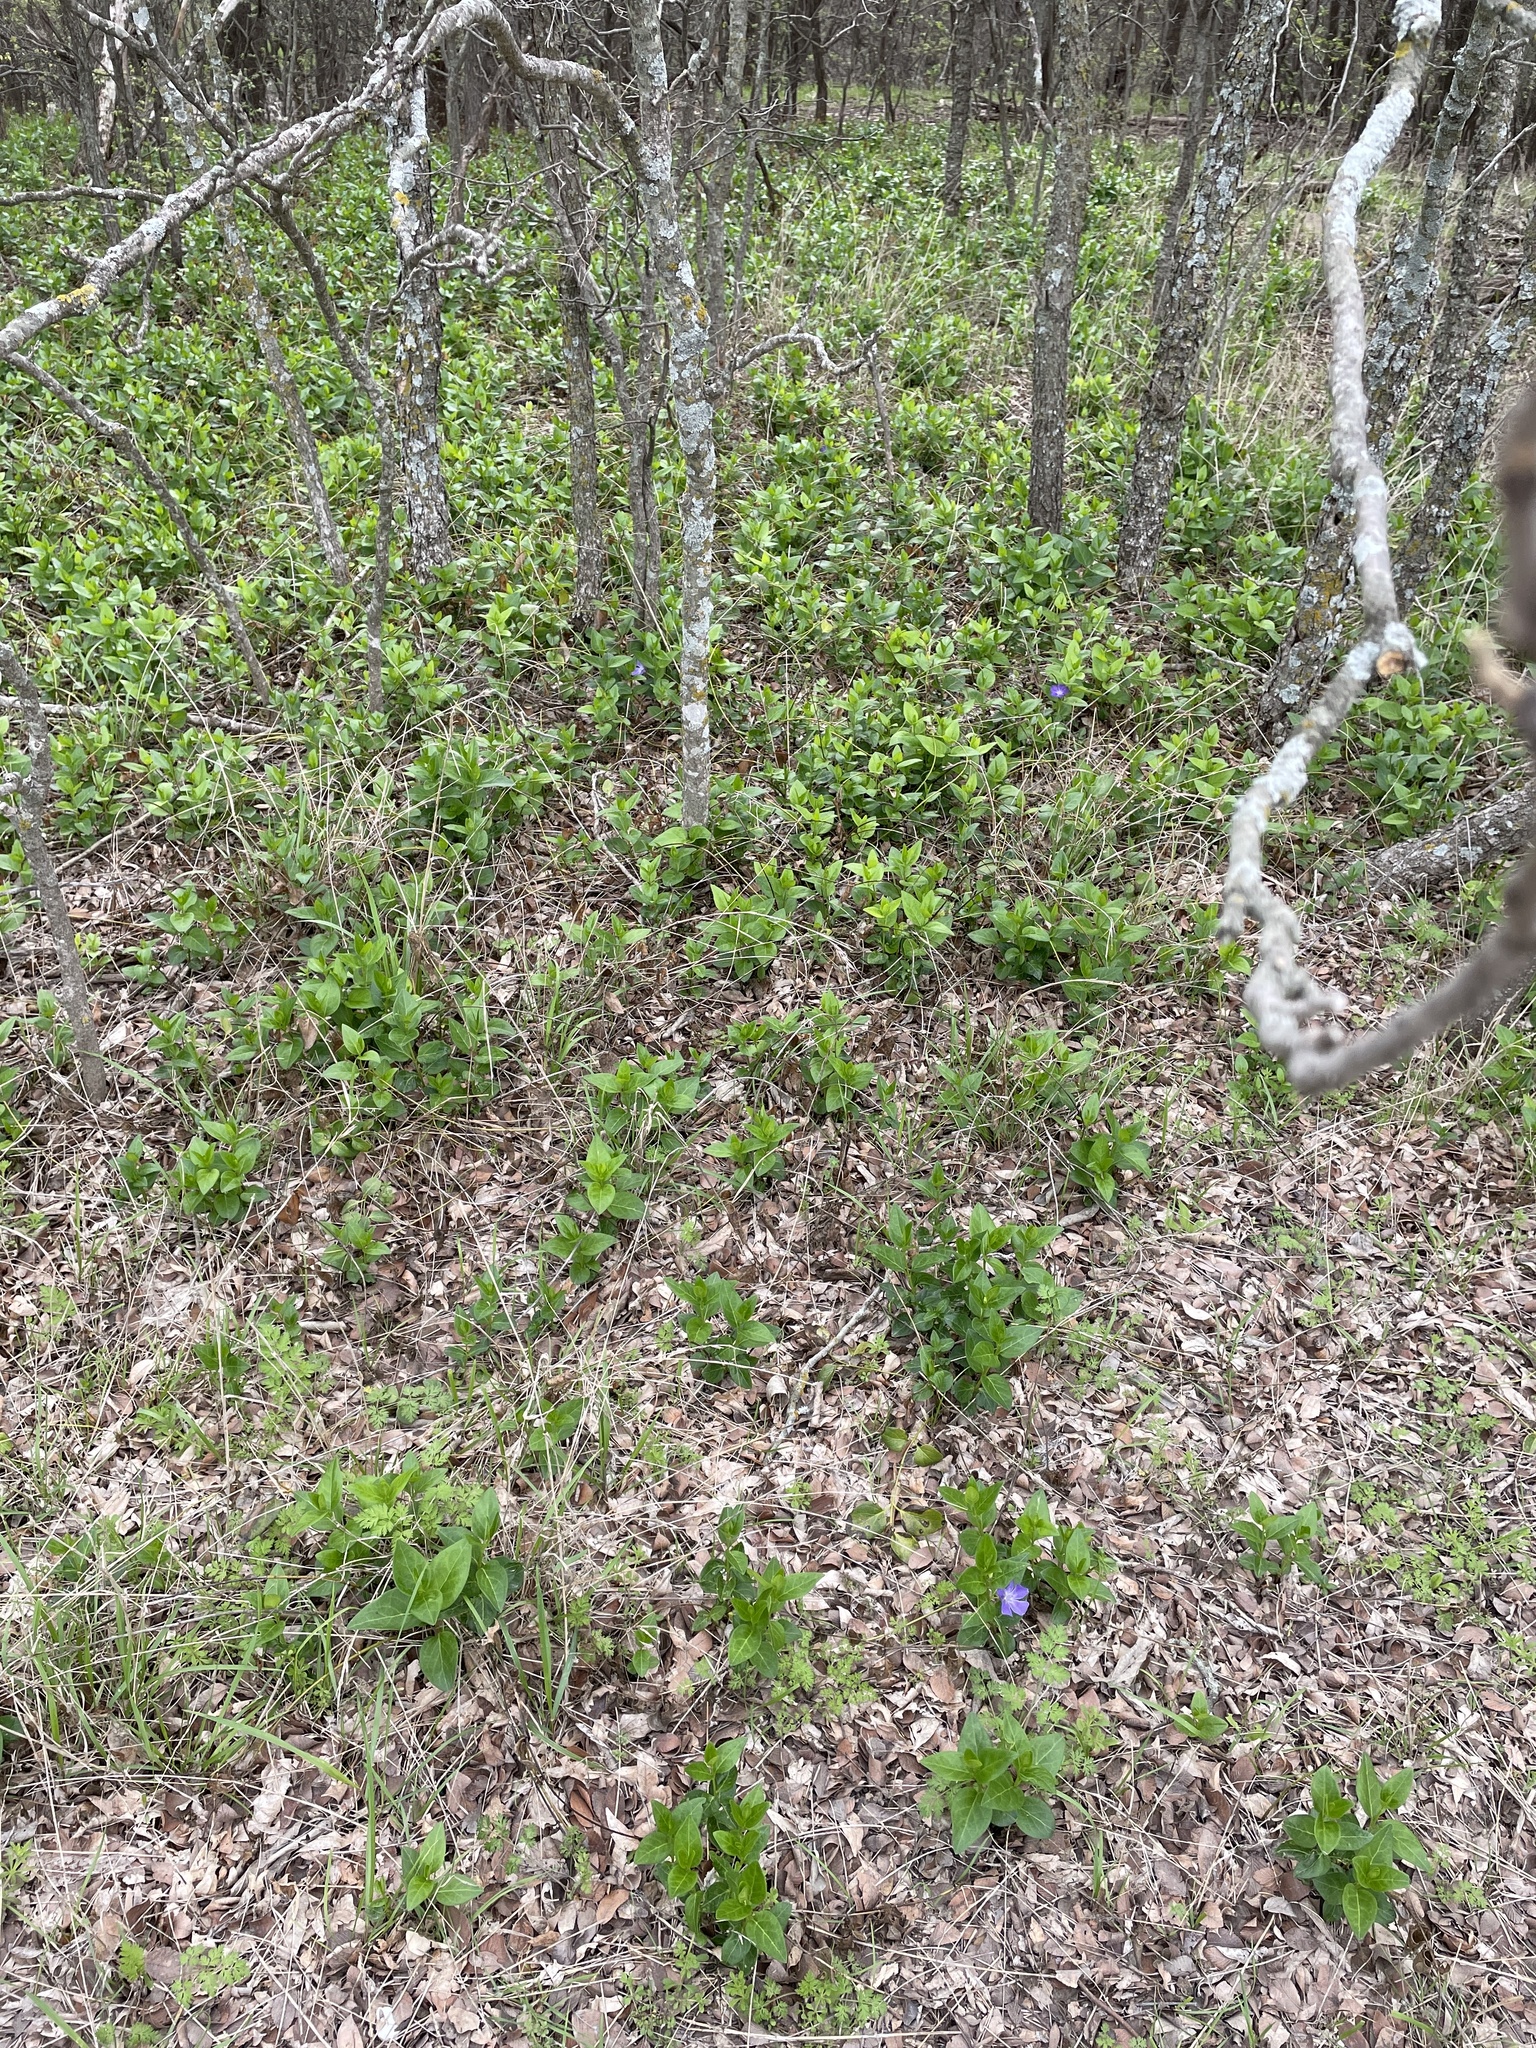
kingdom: Plantae
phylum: Tracheophyta
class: Magnoliopsida
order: Gentianales
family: Apocynaceae
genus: Vinca
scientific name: Vinca major
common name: Greater periwinkle
